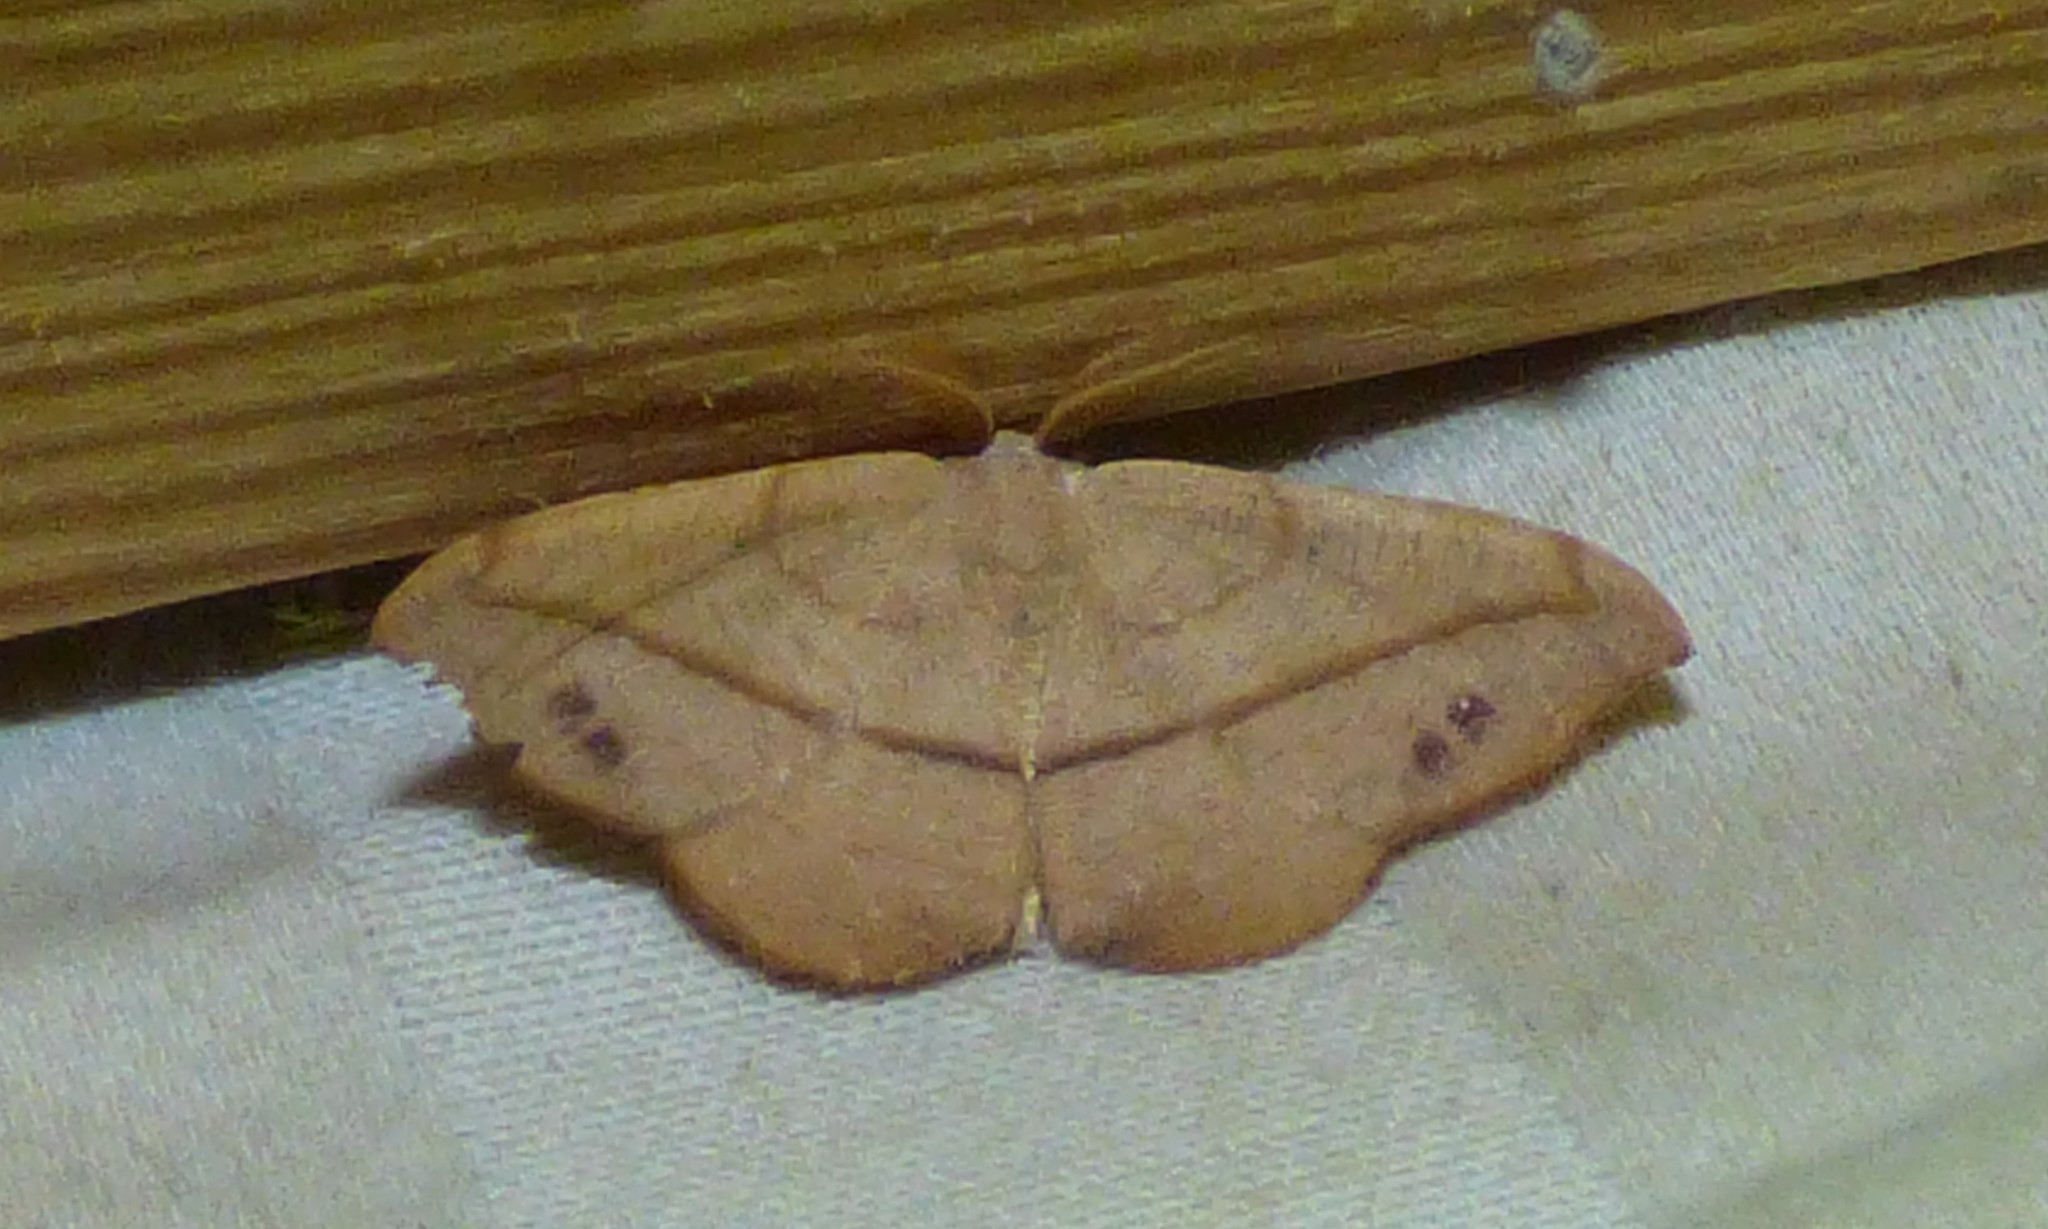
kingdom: Animalia
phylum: Arthropoda
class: Insecta
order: Lepidoptera
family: Geometridae
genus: Patalene
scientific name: Patalene olyzonaria
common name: Juniper geometer moth
